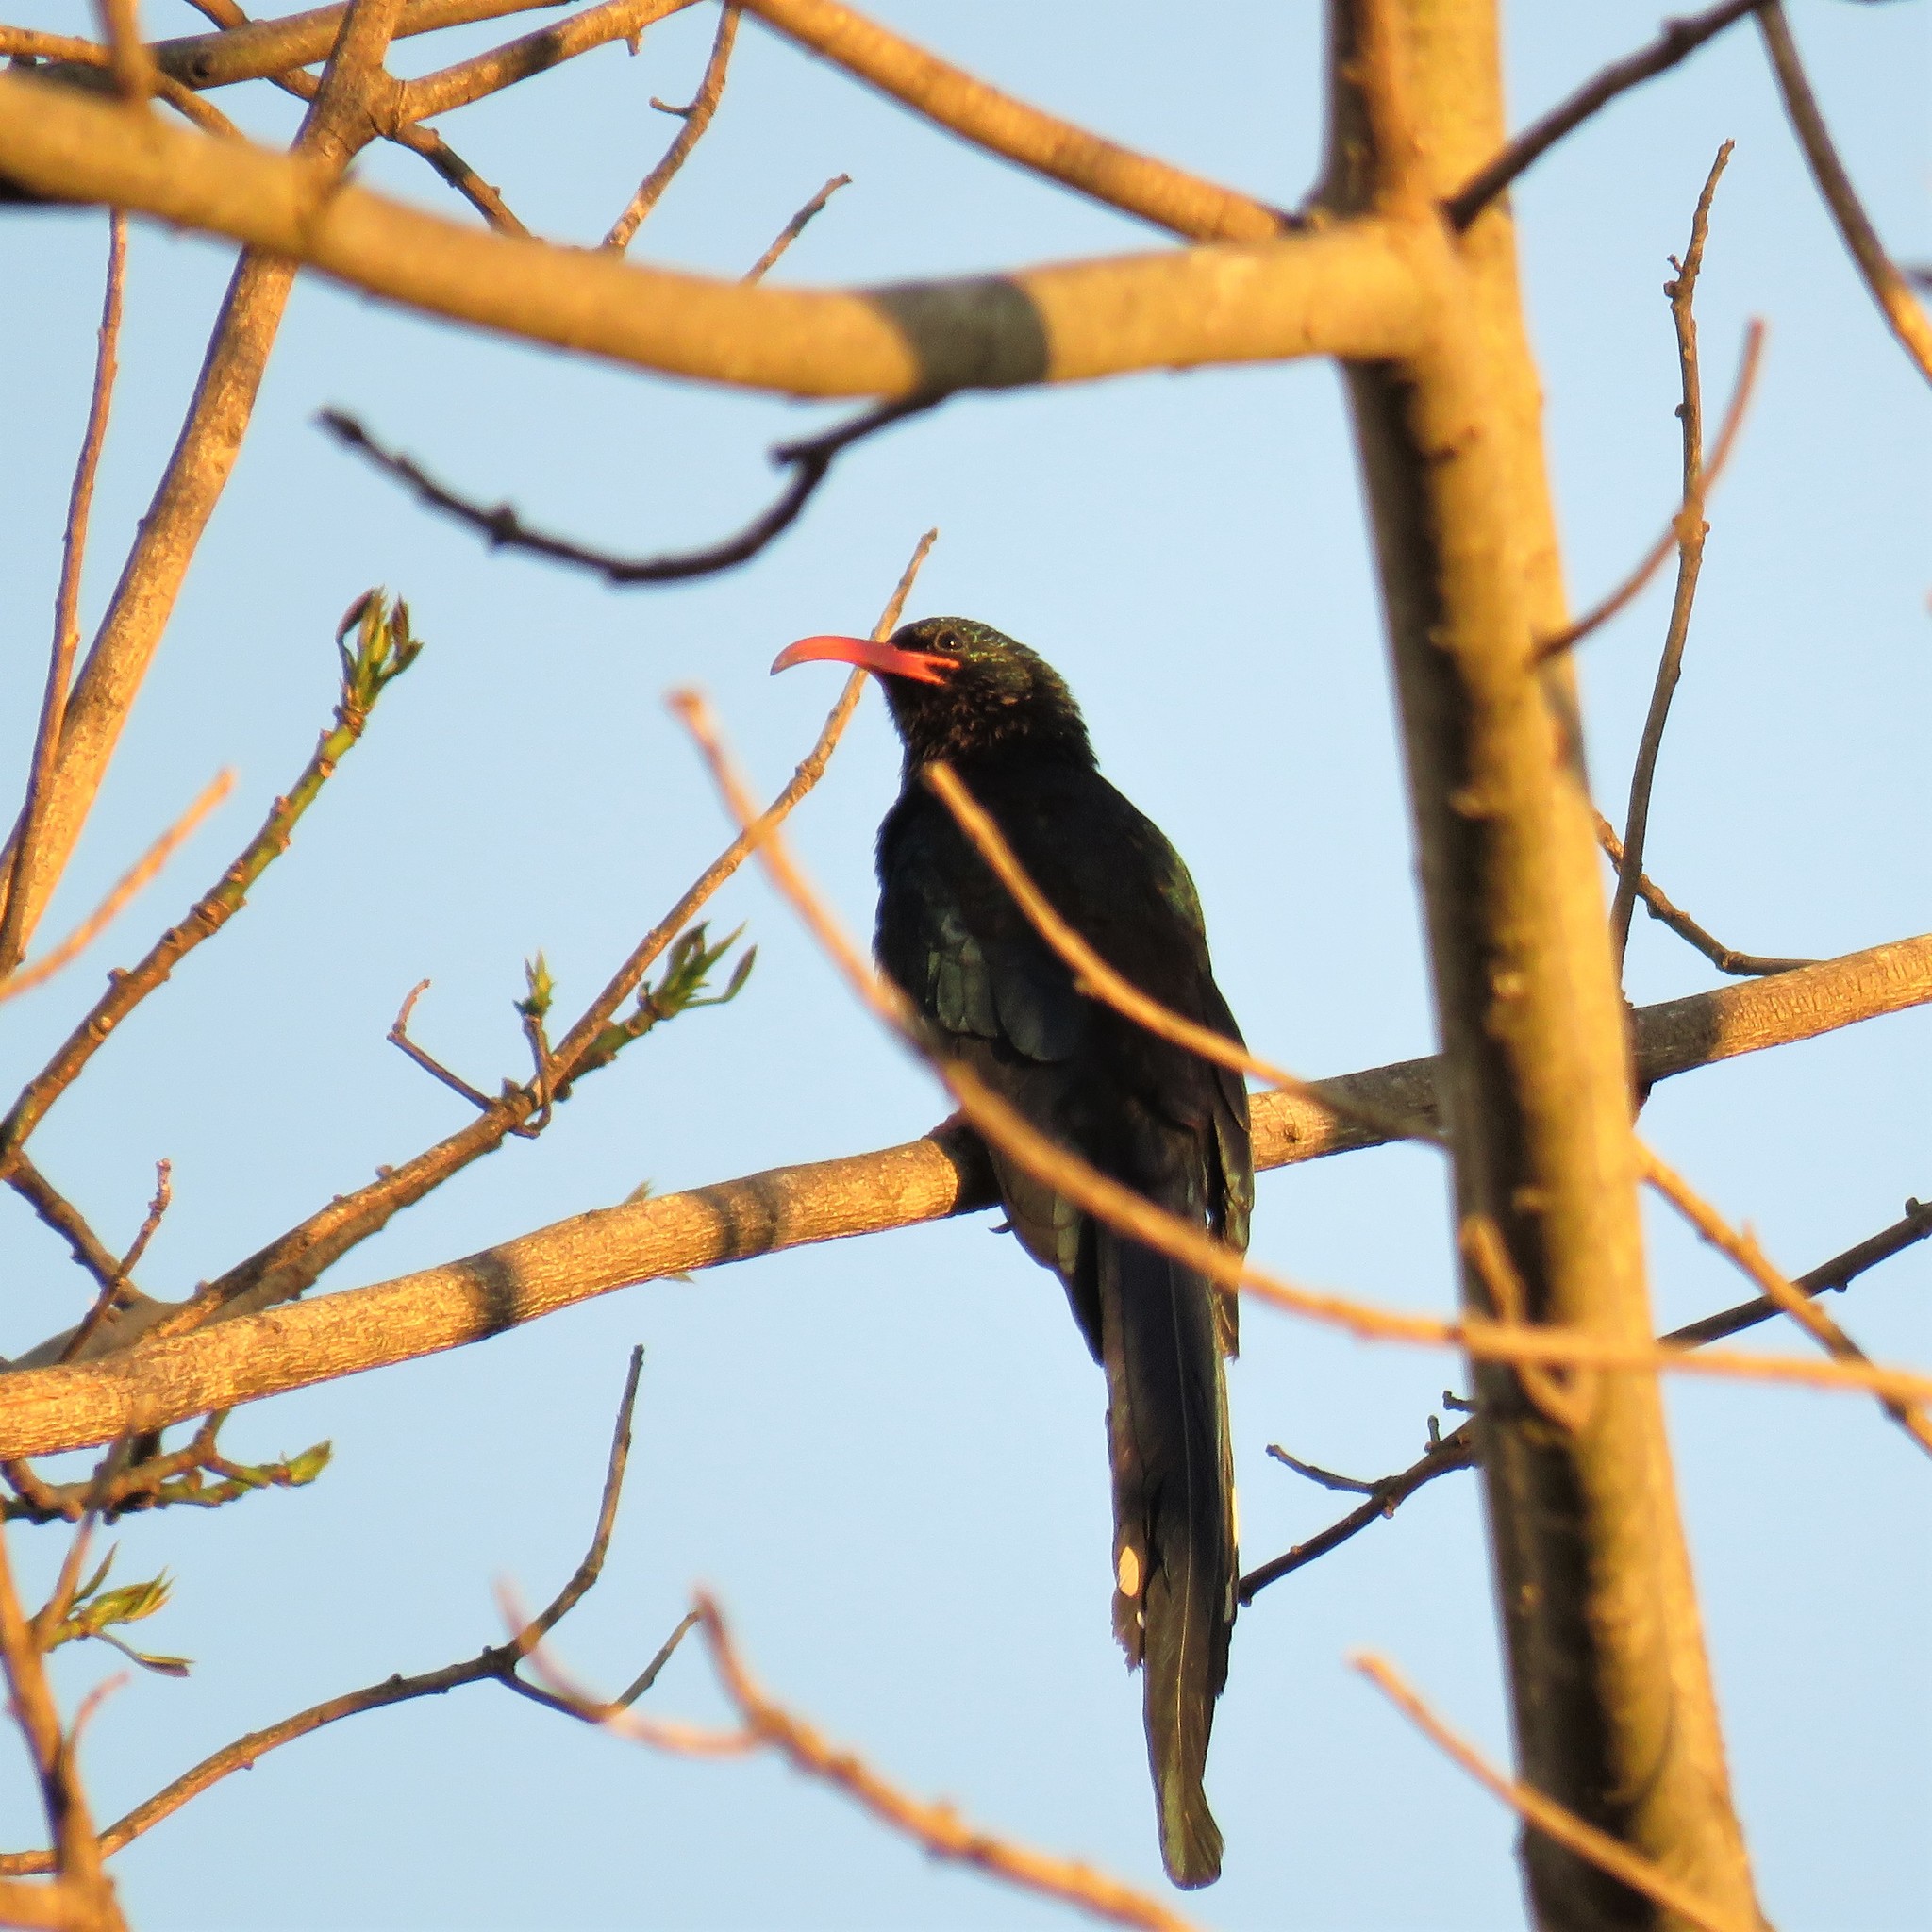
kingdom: Animalia
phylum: Chordata
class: Aves
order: Bucerotiformes
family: Phoeniculidae
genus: Phoeniculus
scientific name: Phoeniculus purpureus
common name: Green woodhoopoe
